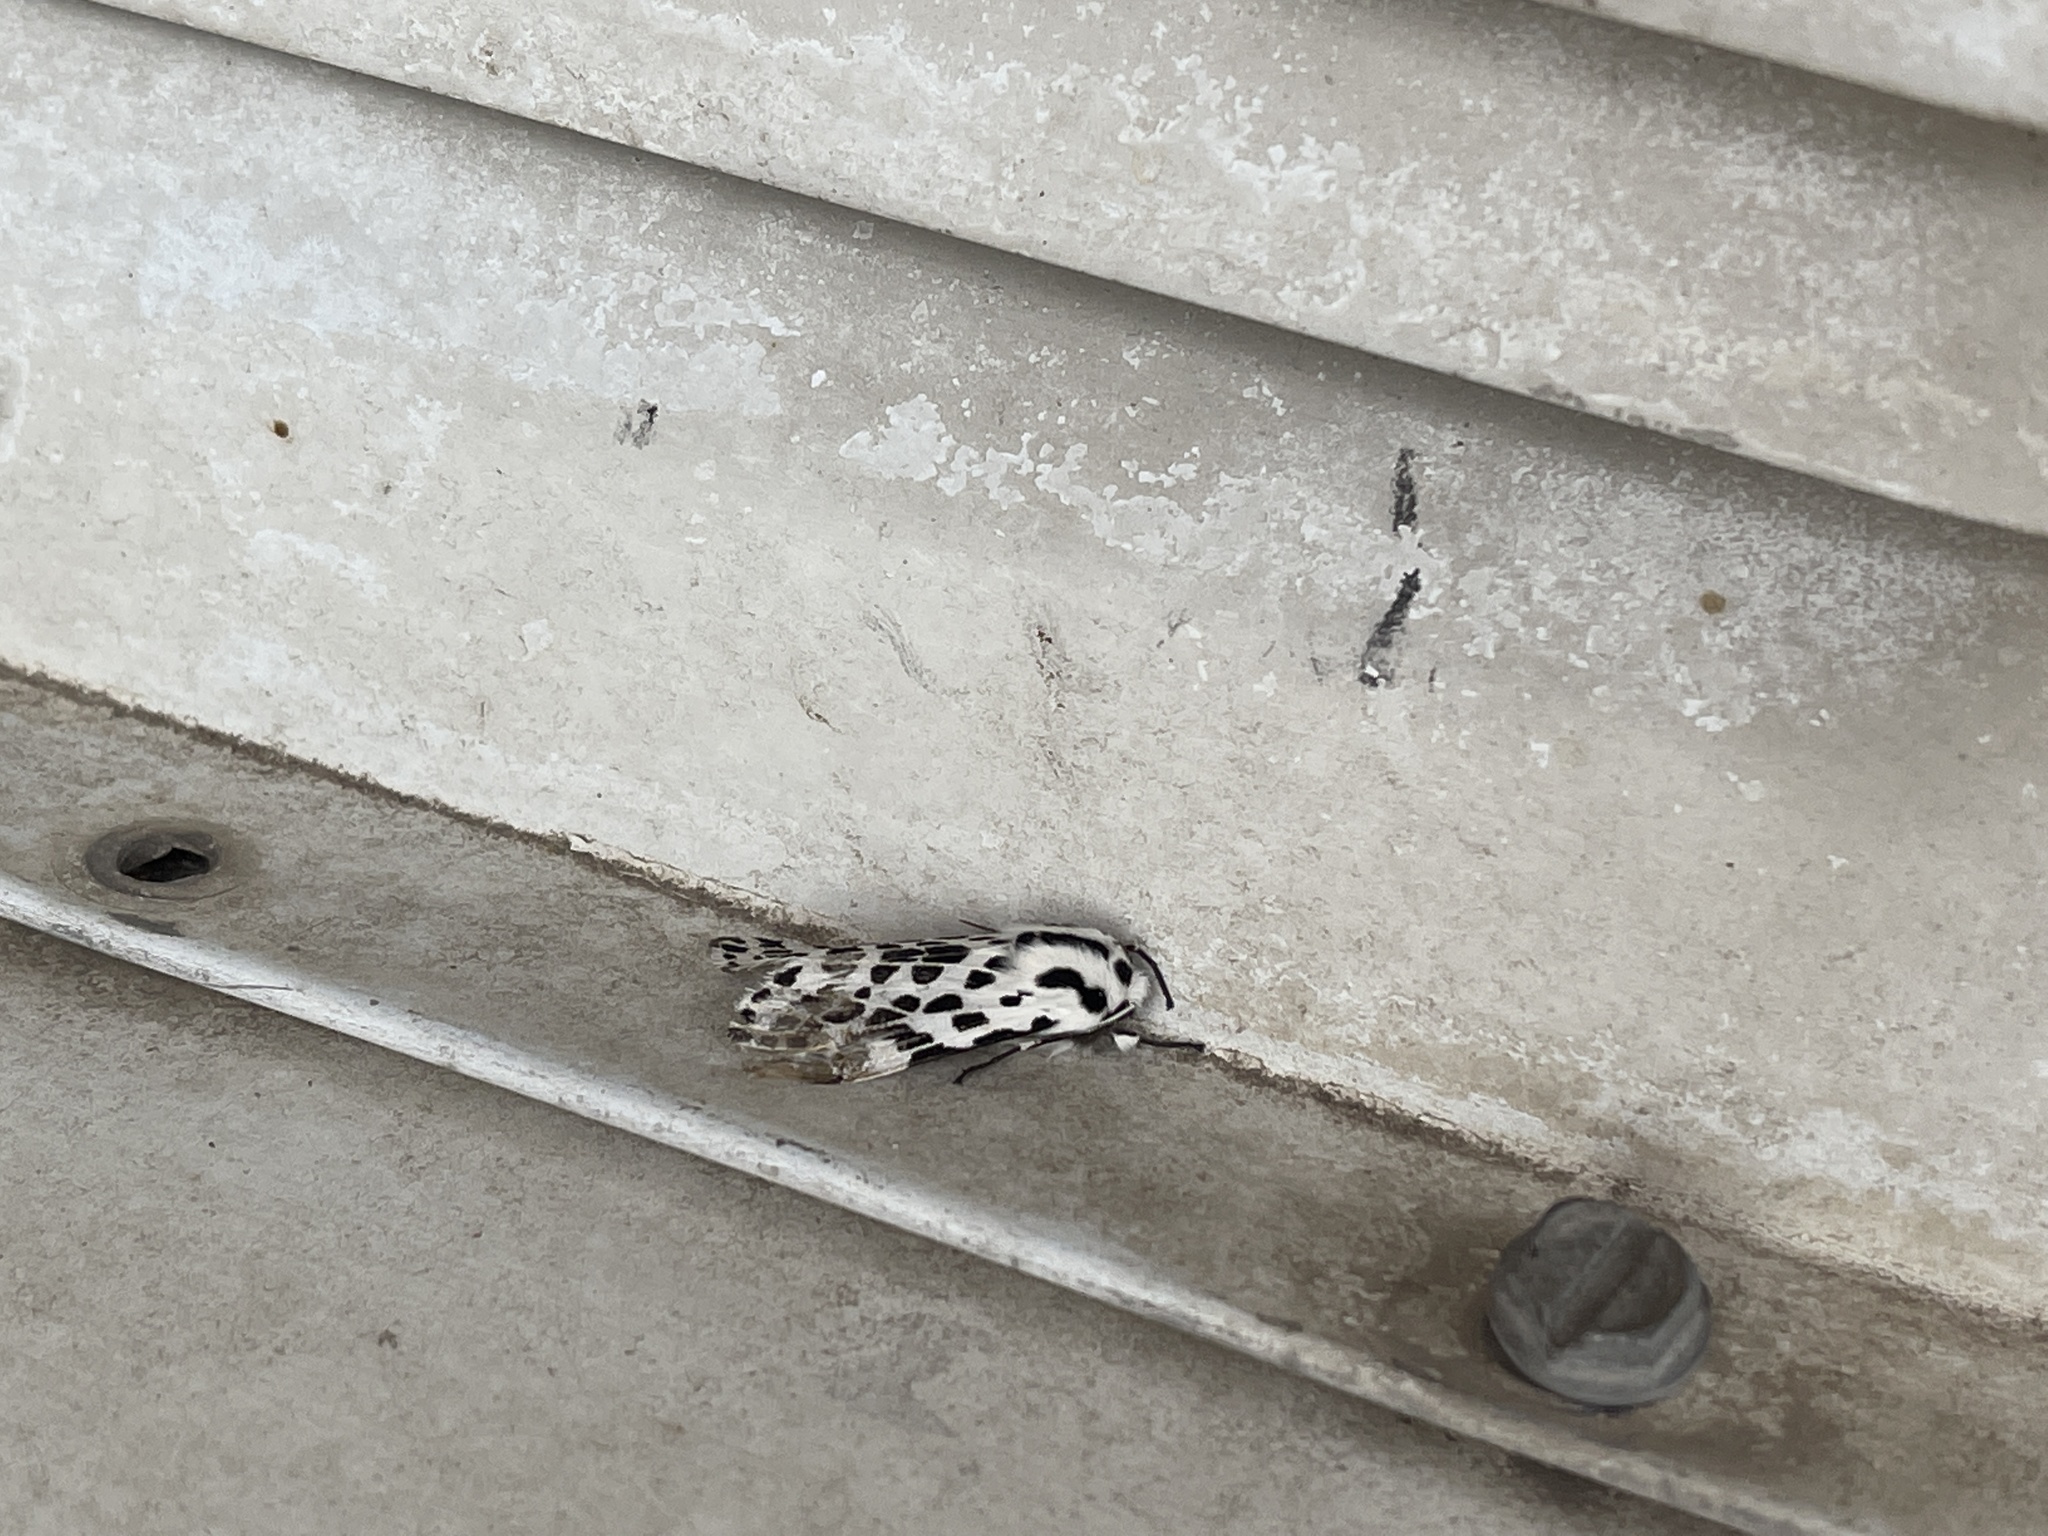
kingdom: Animalia
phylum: Arthropoda
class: Insecta
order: Lepidoptera
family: Erebidae
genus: Hypercompe
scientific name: Hypercompe permaculata
